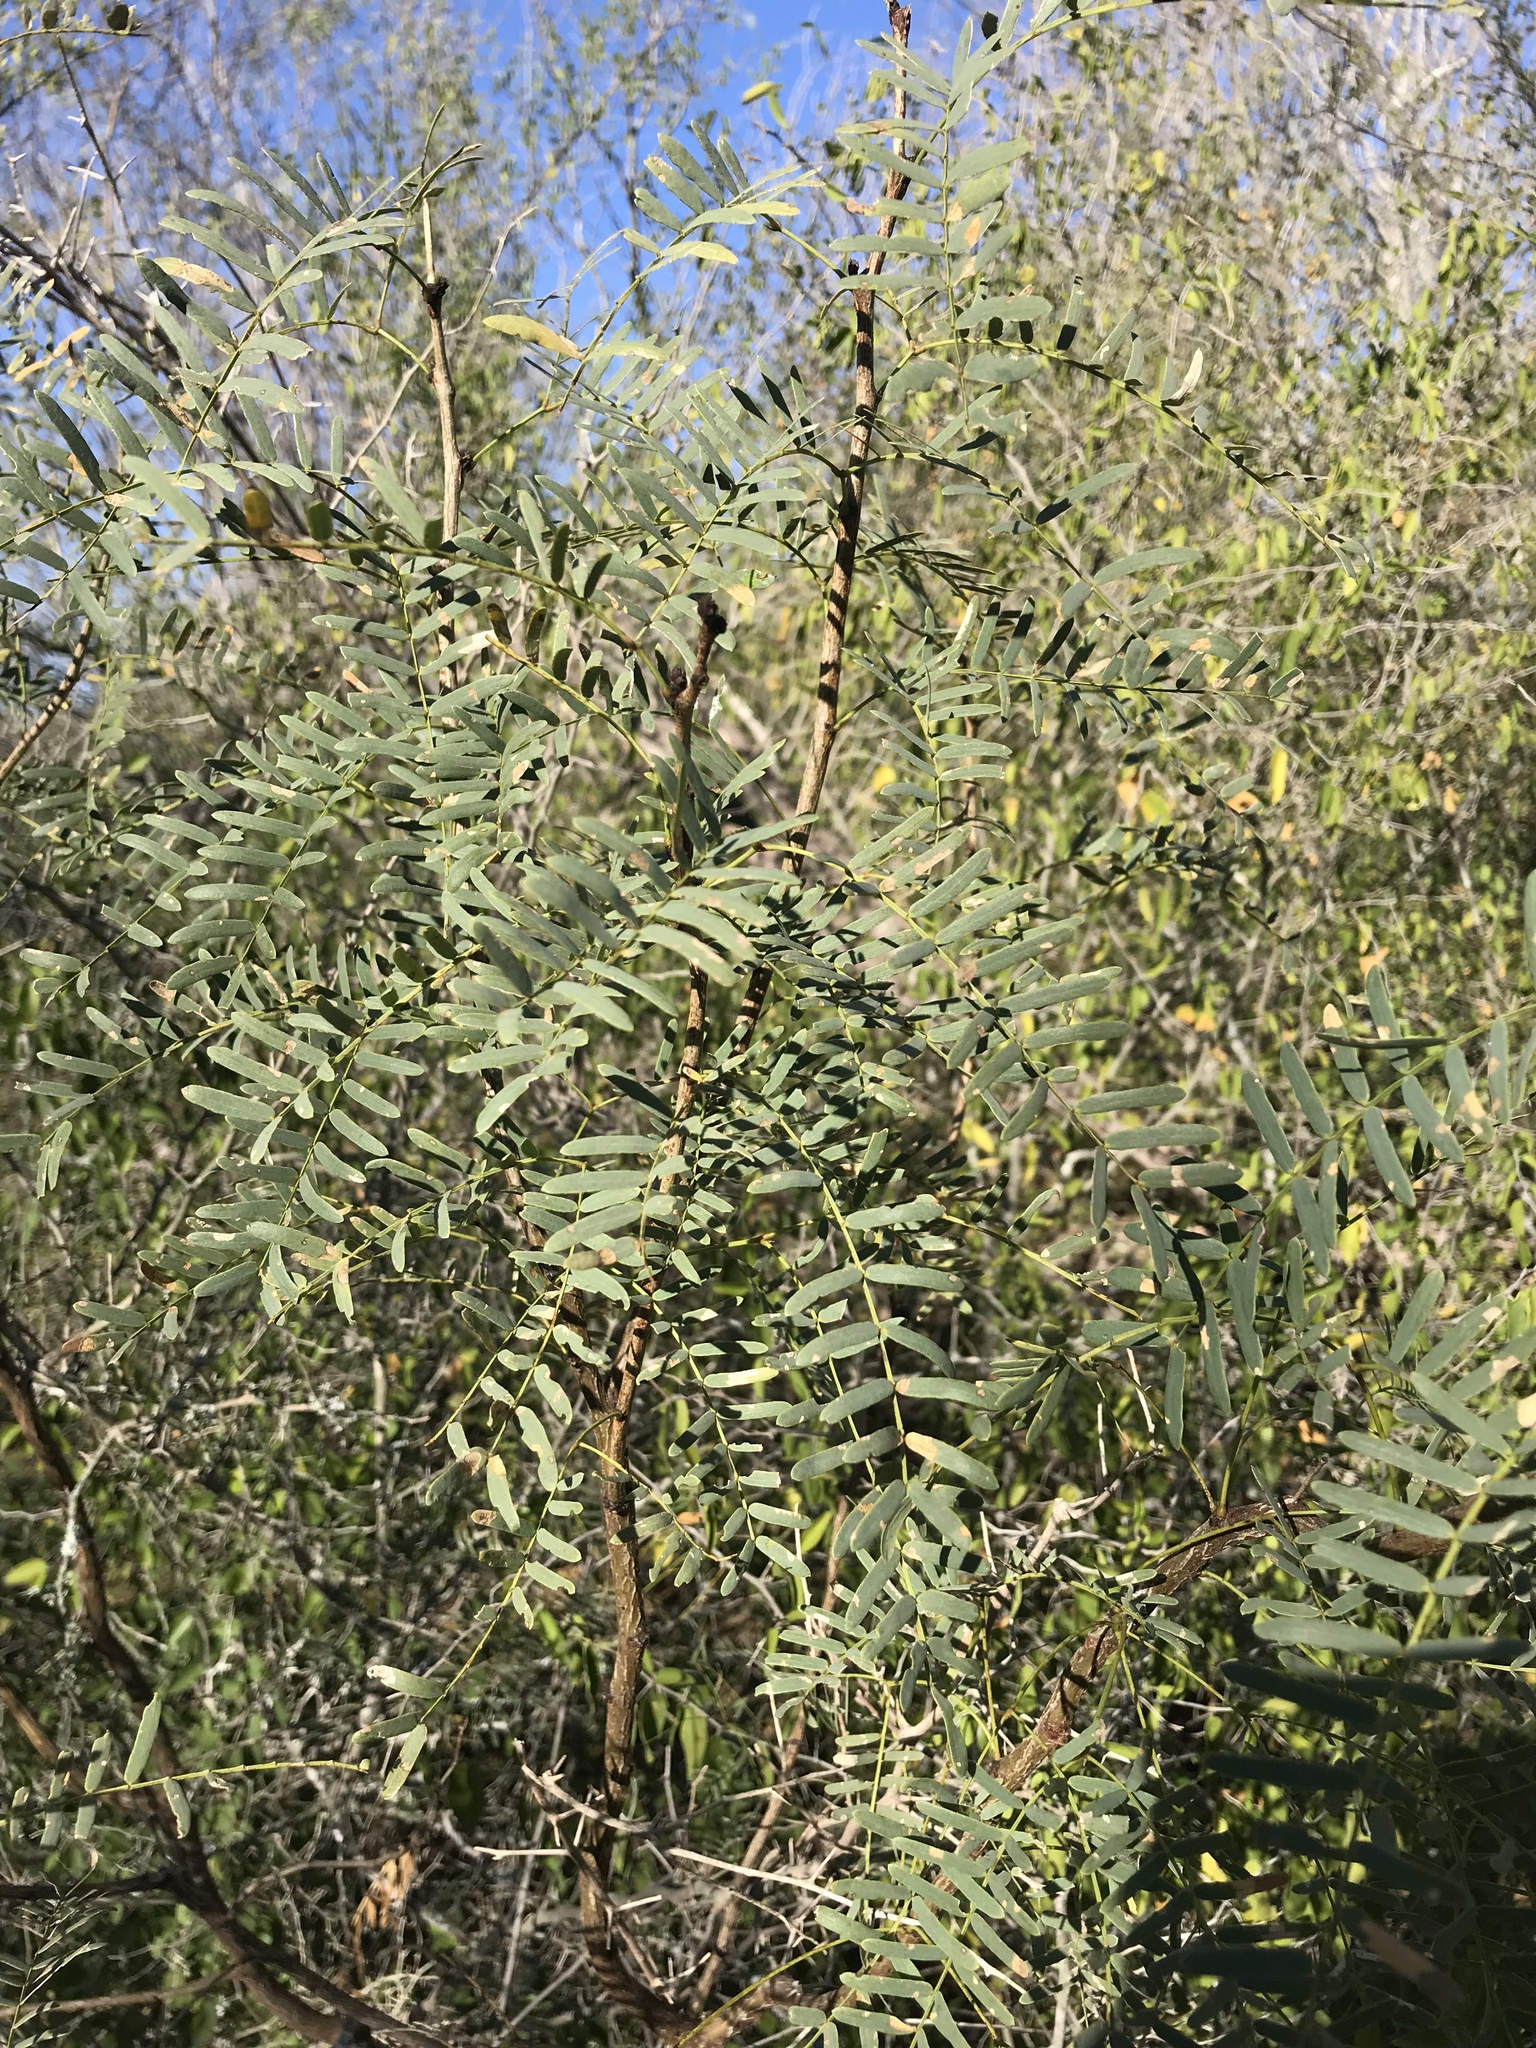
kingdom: Plantae
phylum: Tracheophyta
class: Magnoliopsida
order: Fabales
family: Fabaceae
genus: Prosopis
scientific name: Prosopis glandulosa
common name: Honey mesquite
